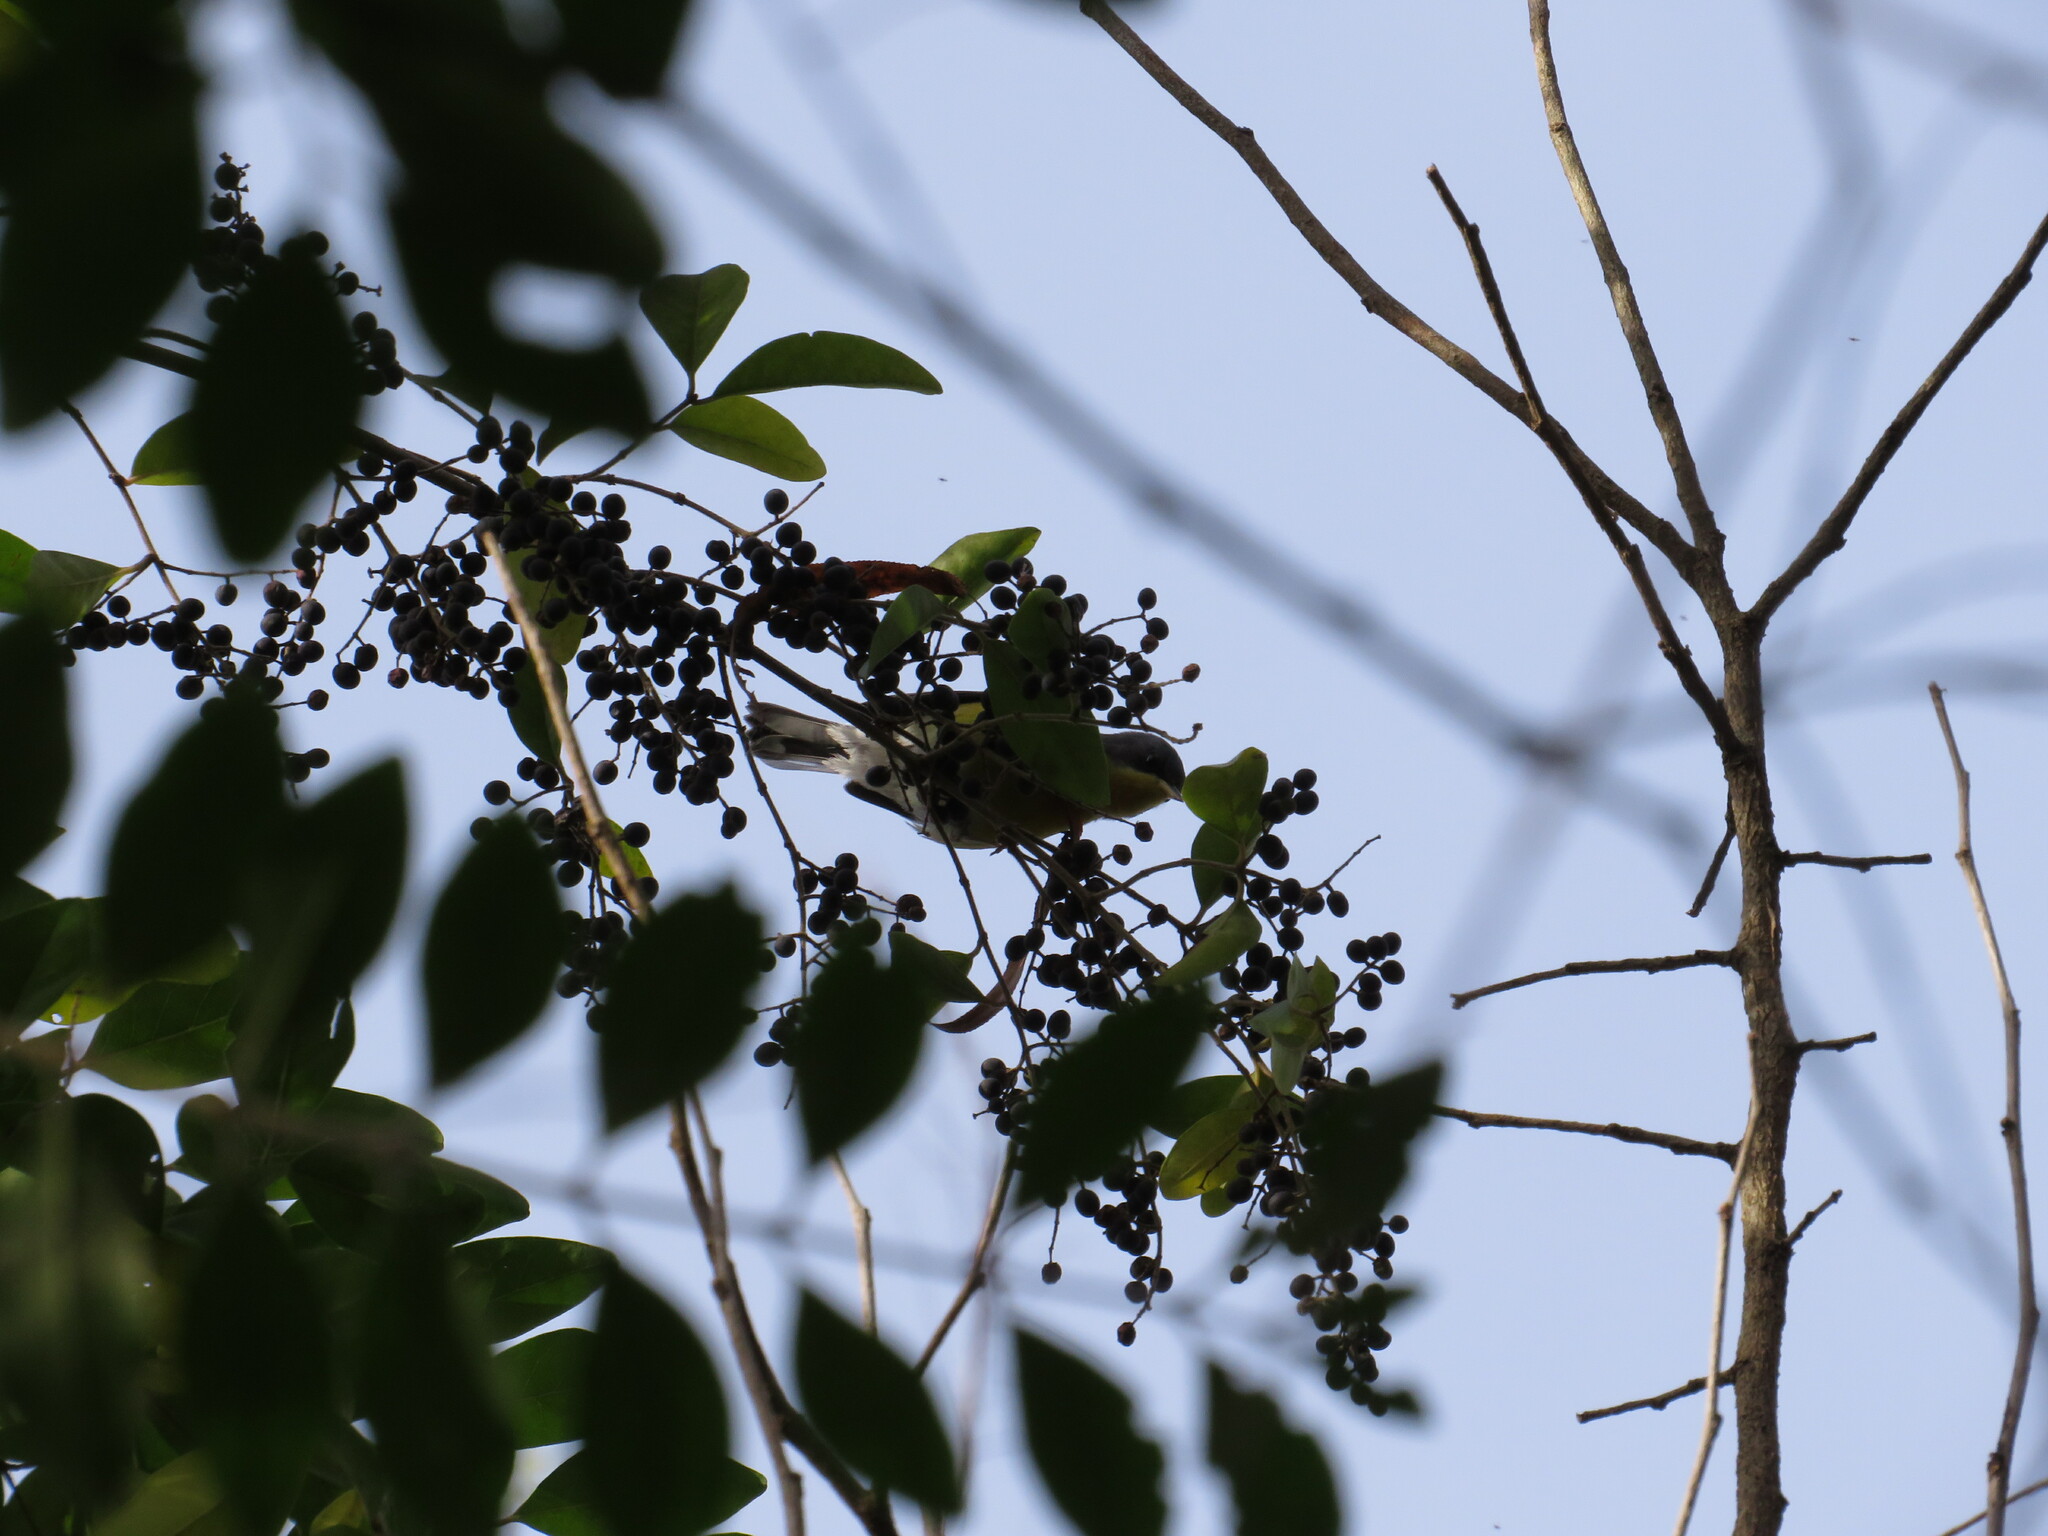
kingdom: Animalia
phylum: Chordata
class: Aves
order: Passeriformes
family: Parulidae
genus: Setophaga
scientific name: Setophaga pitiayumi
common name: Tropical parula
